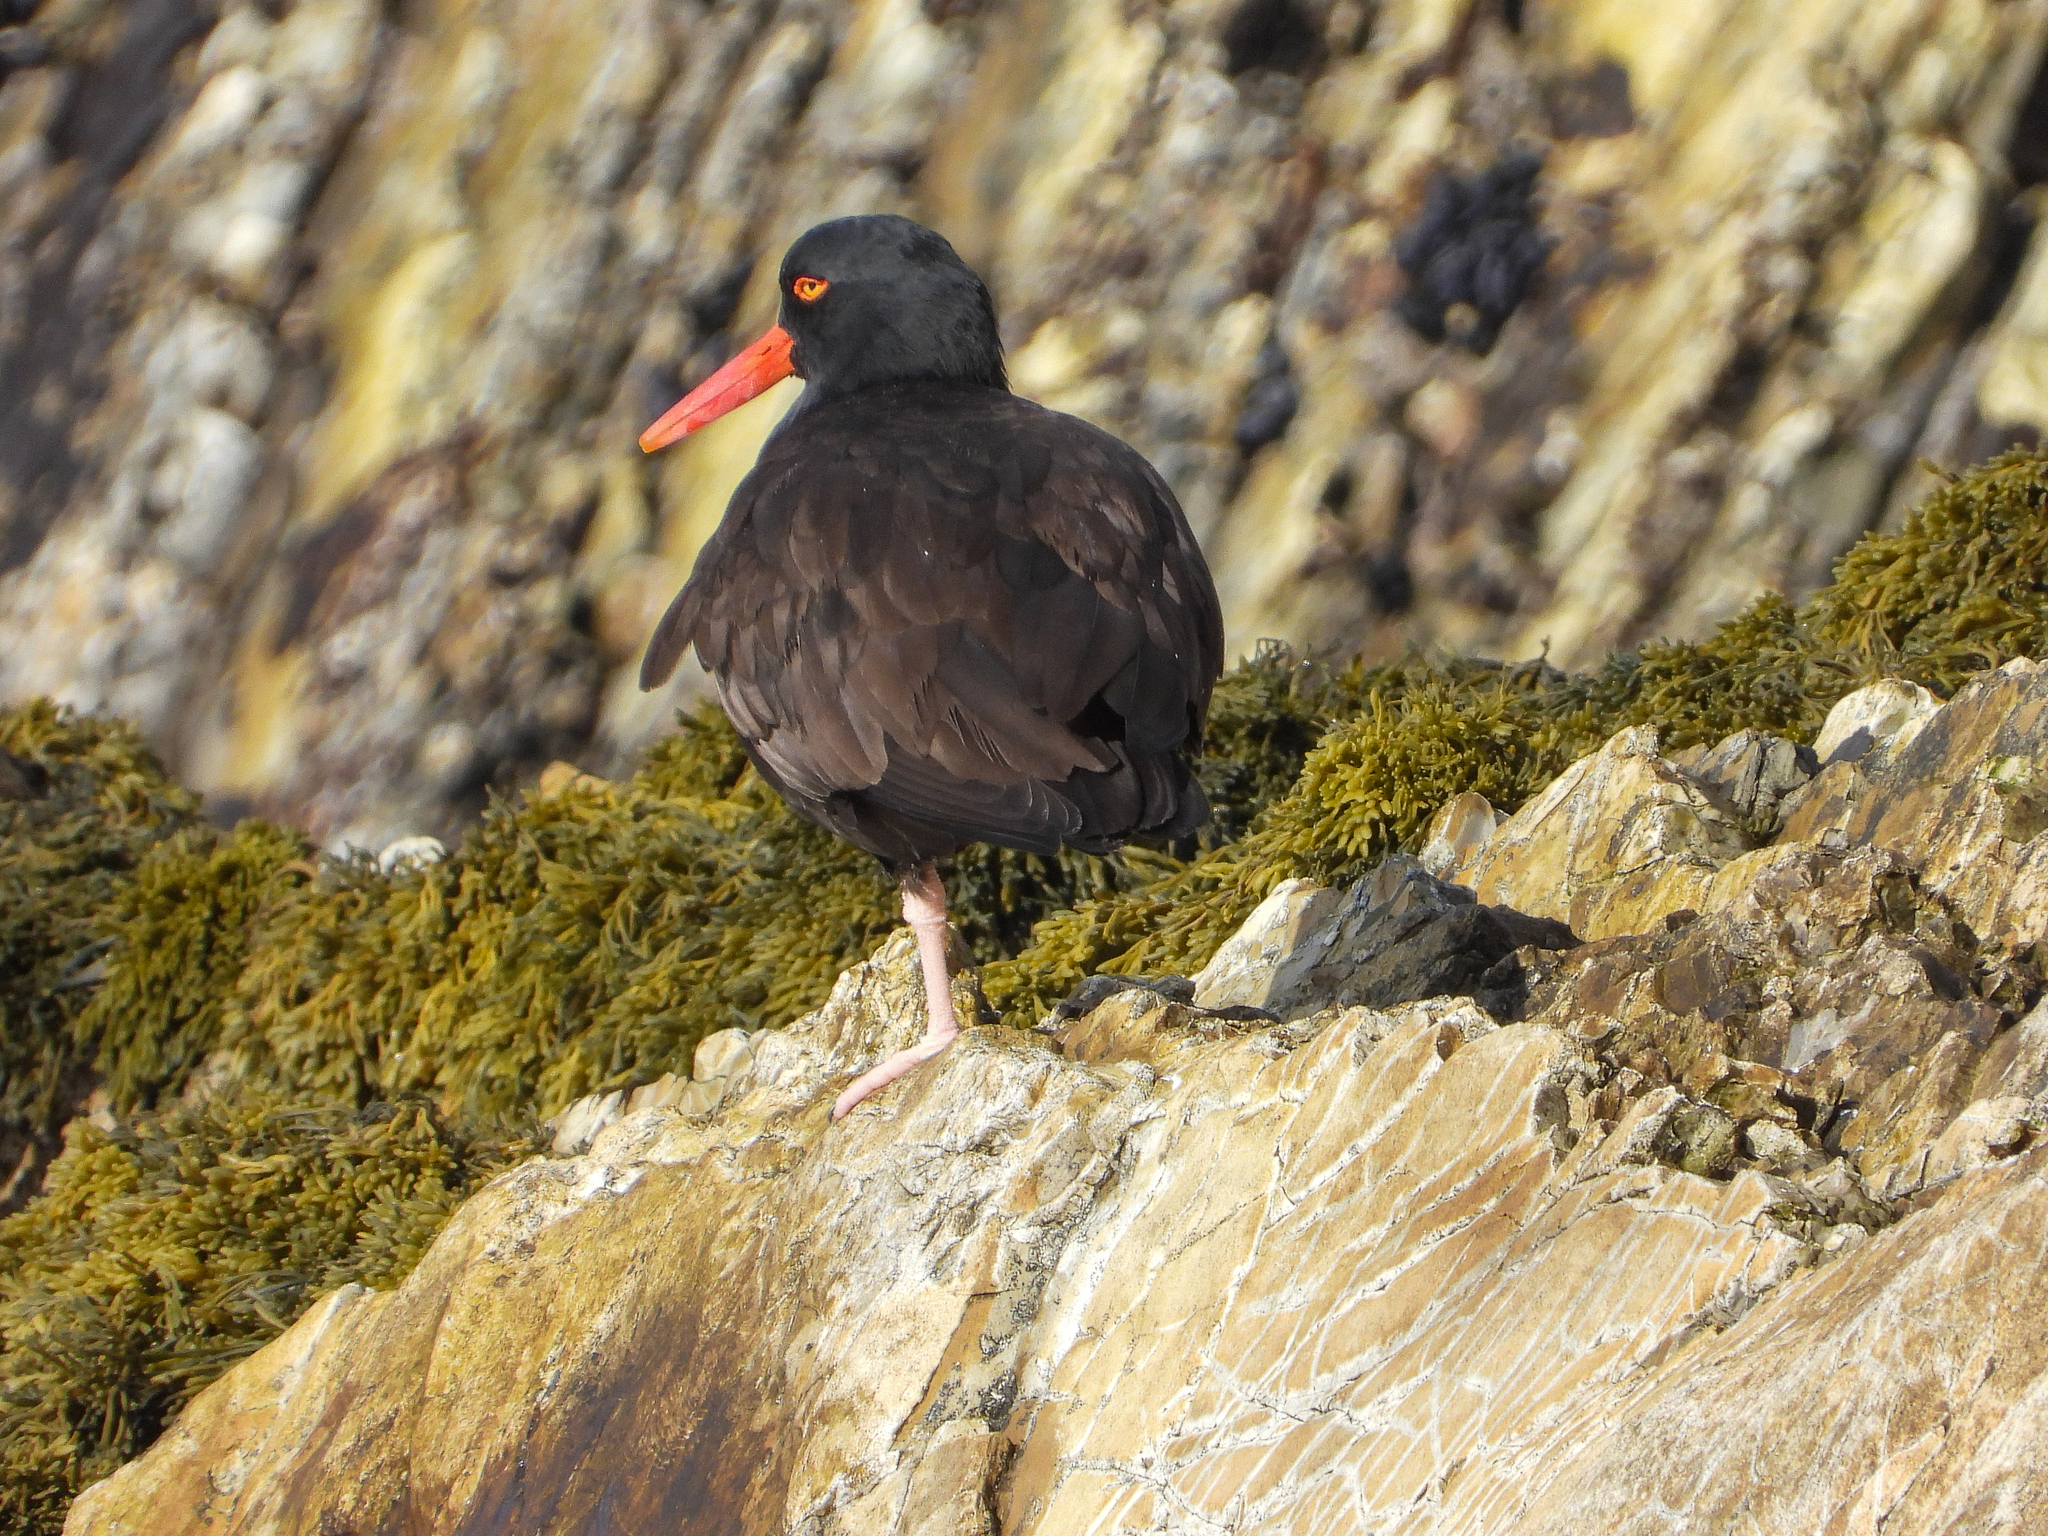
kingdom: Animalia
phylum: Chordata
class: Aves
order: Charadriiformes
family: Haematopodidae
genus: Haematopus
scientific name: Haematopus bachmani
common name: Black oystercatcher
